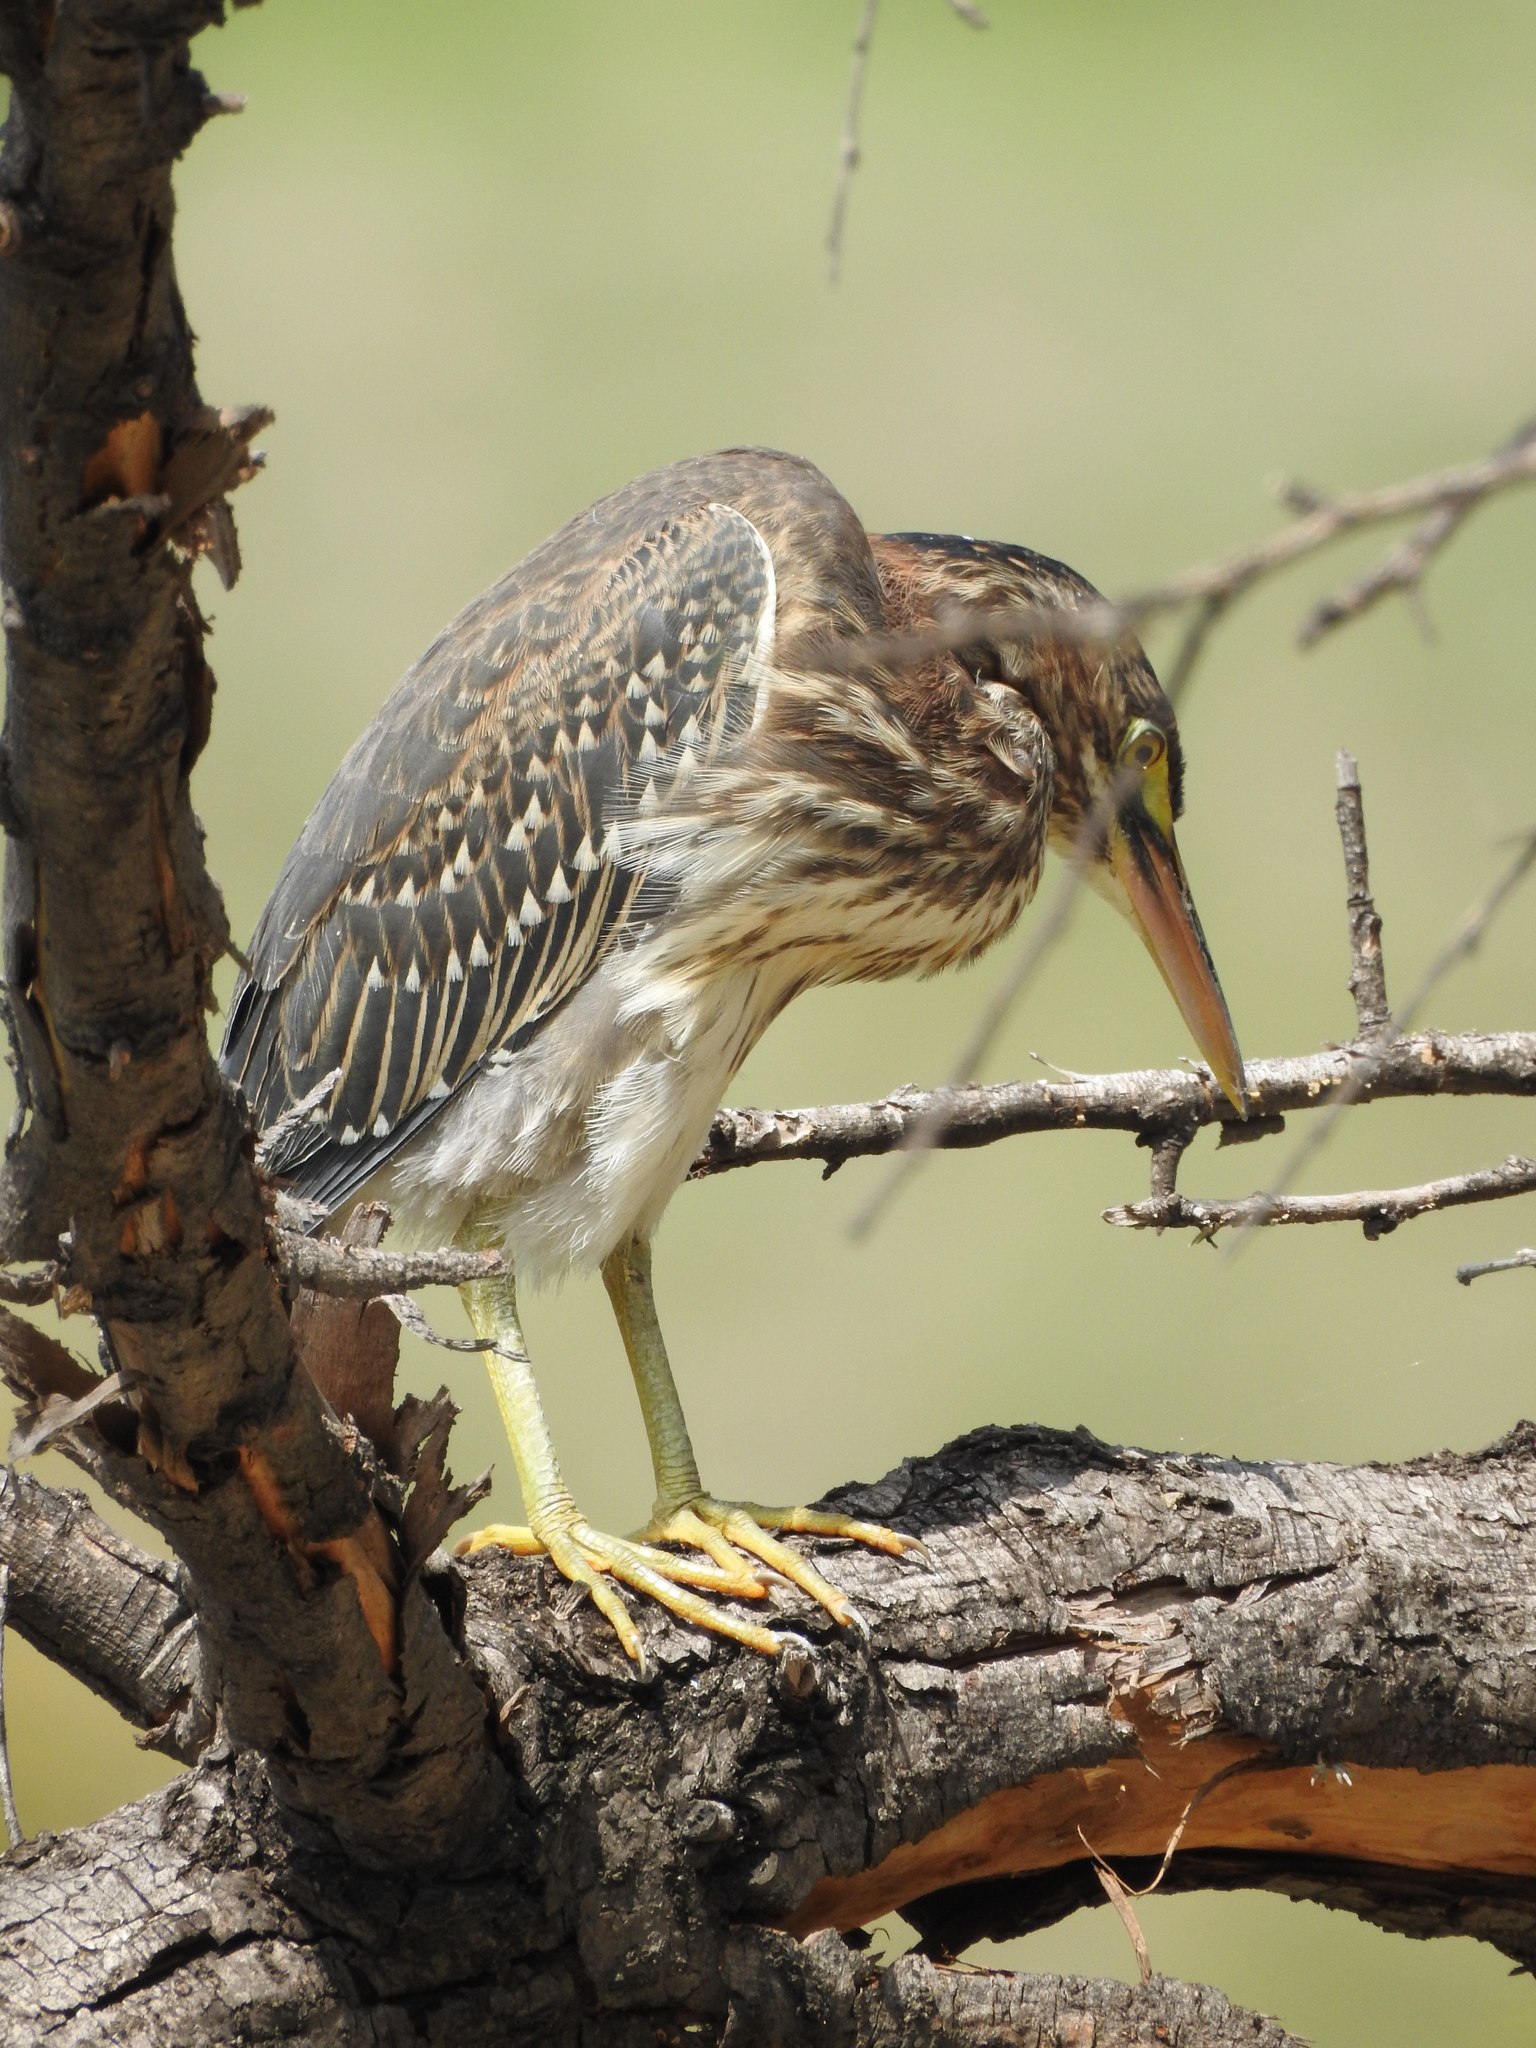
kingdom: Animalia
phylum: Chordata
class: Aves
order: Pelecaniformes
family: Ardeidae
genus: Butorides
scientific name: Butorides virescens
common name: Green heron
